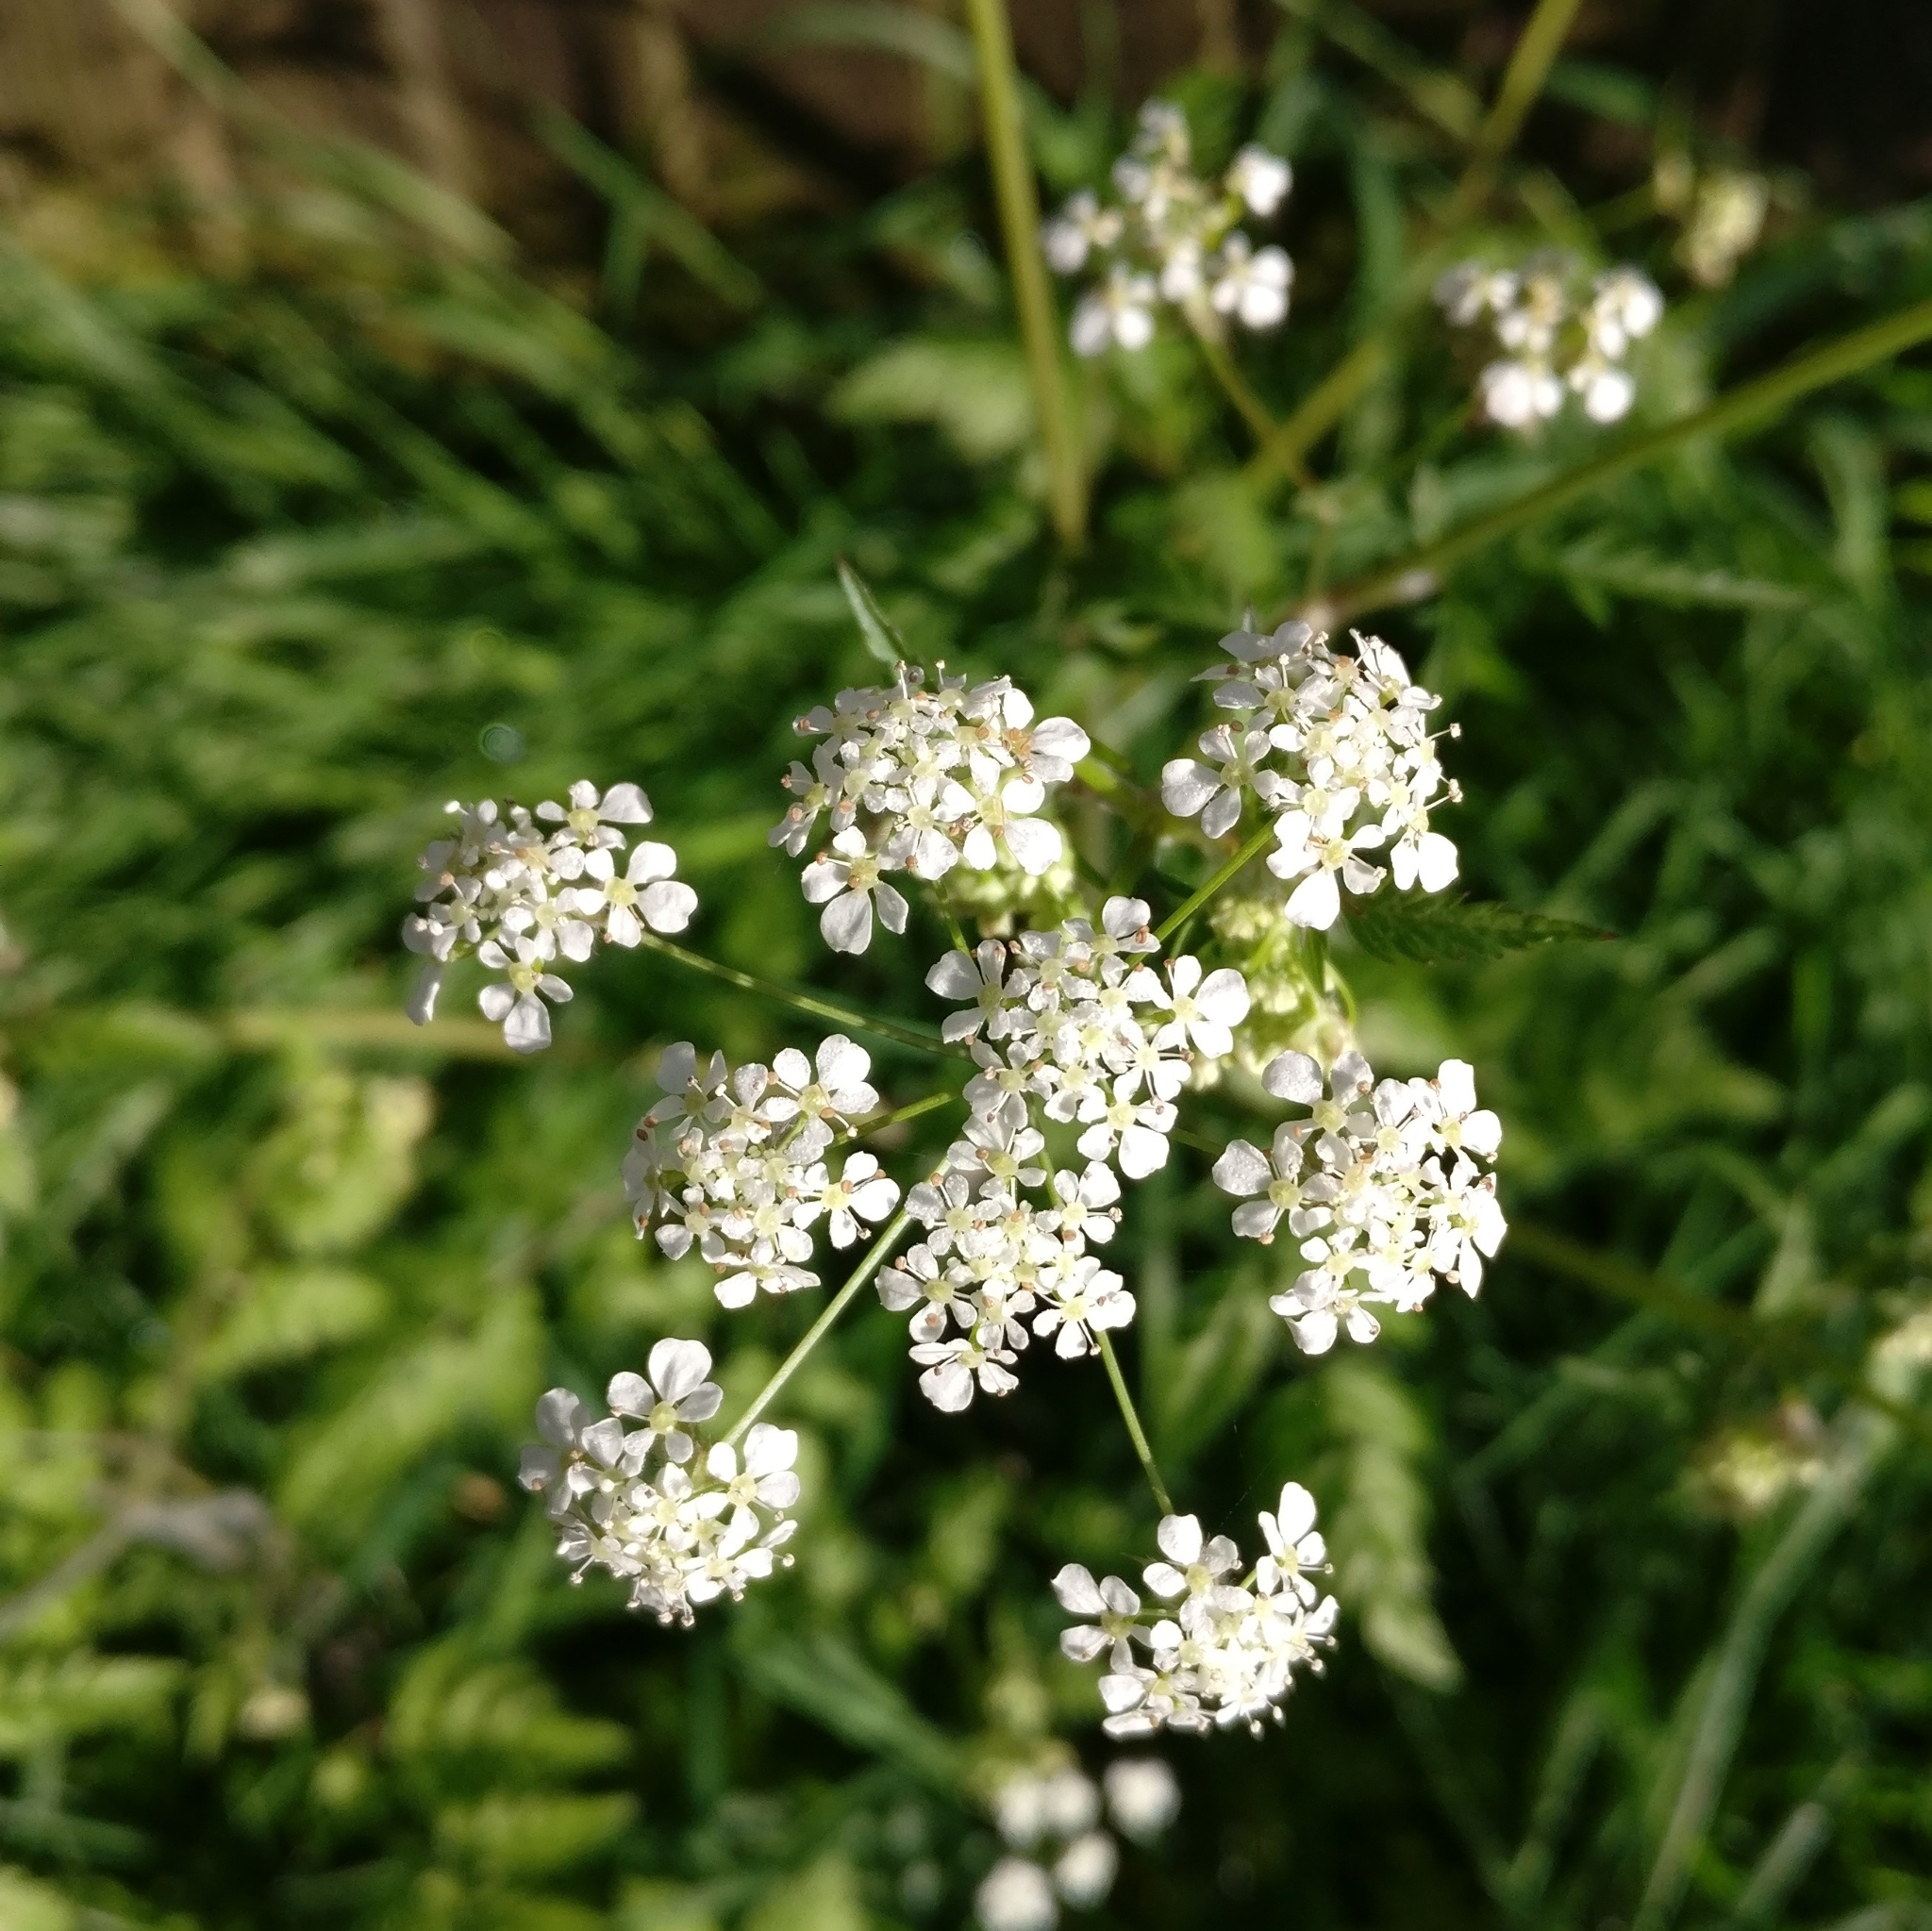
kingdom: Plantae
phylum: Tracheophyta
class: Magnoliopsida
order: Apiales
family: Apiaceae
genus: Anthriscus
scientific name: Anthriscus sylvestris
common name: Cow parsley
